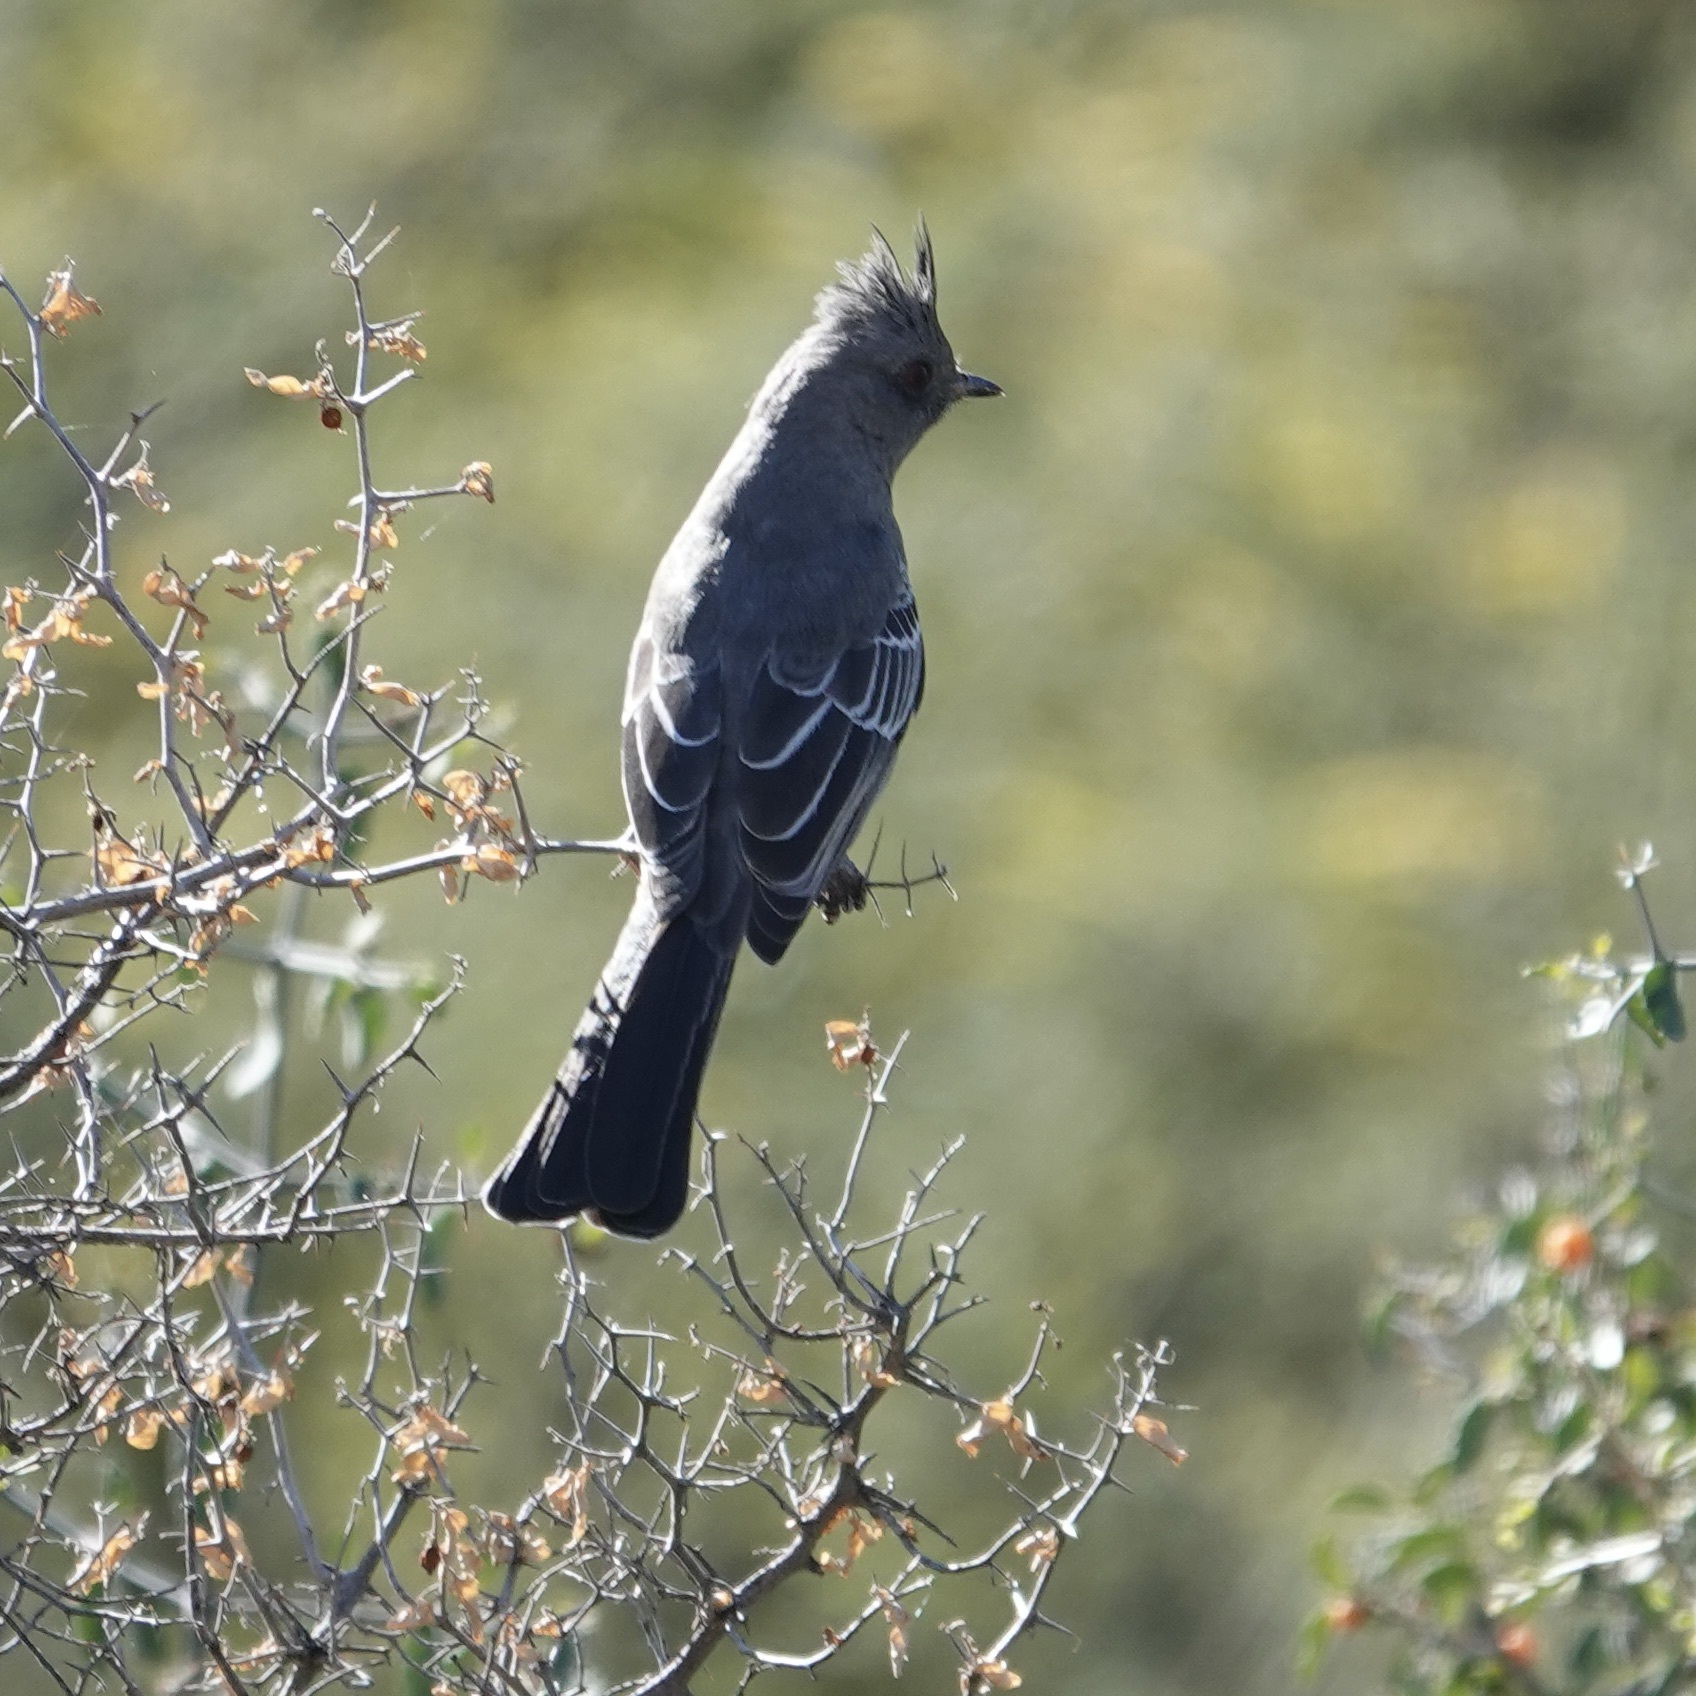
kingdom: Animalia
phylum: Chordata
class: Aves
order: Passeriformes
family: Ptilogonatidae
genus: Phainopepla
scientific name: Phainopepla nitens
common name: Phainopepla
